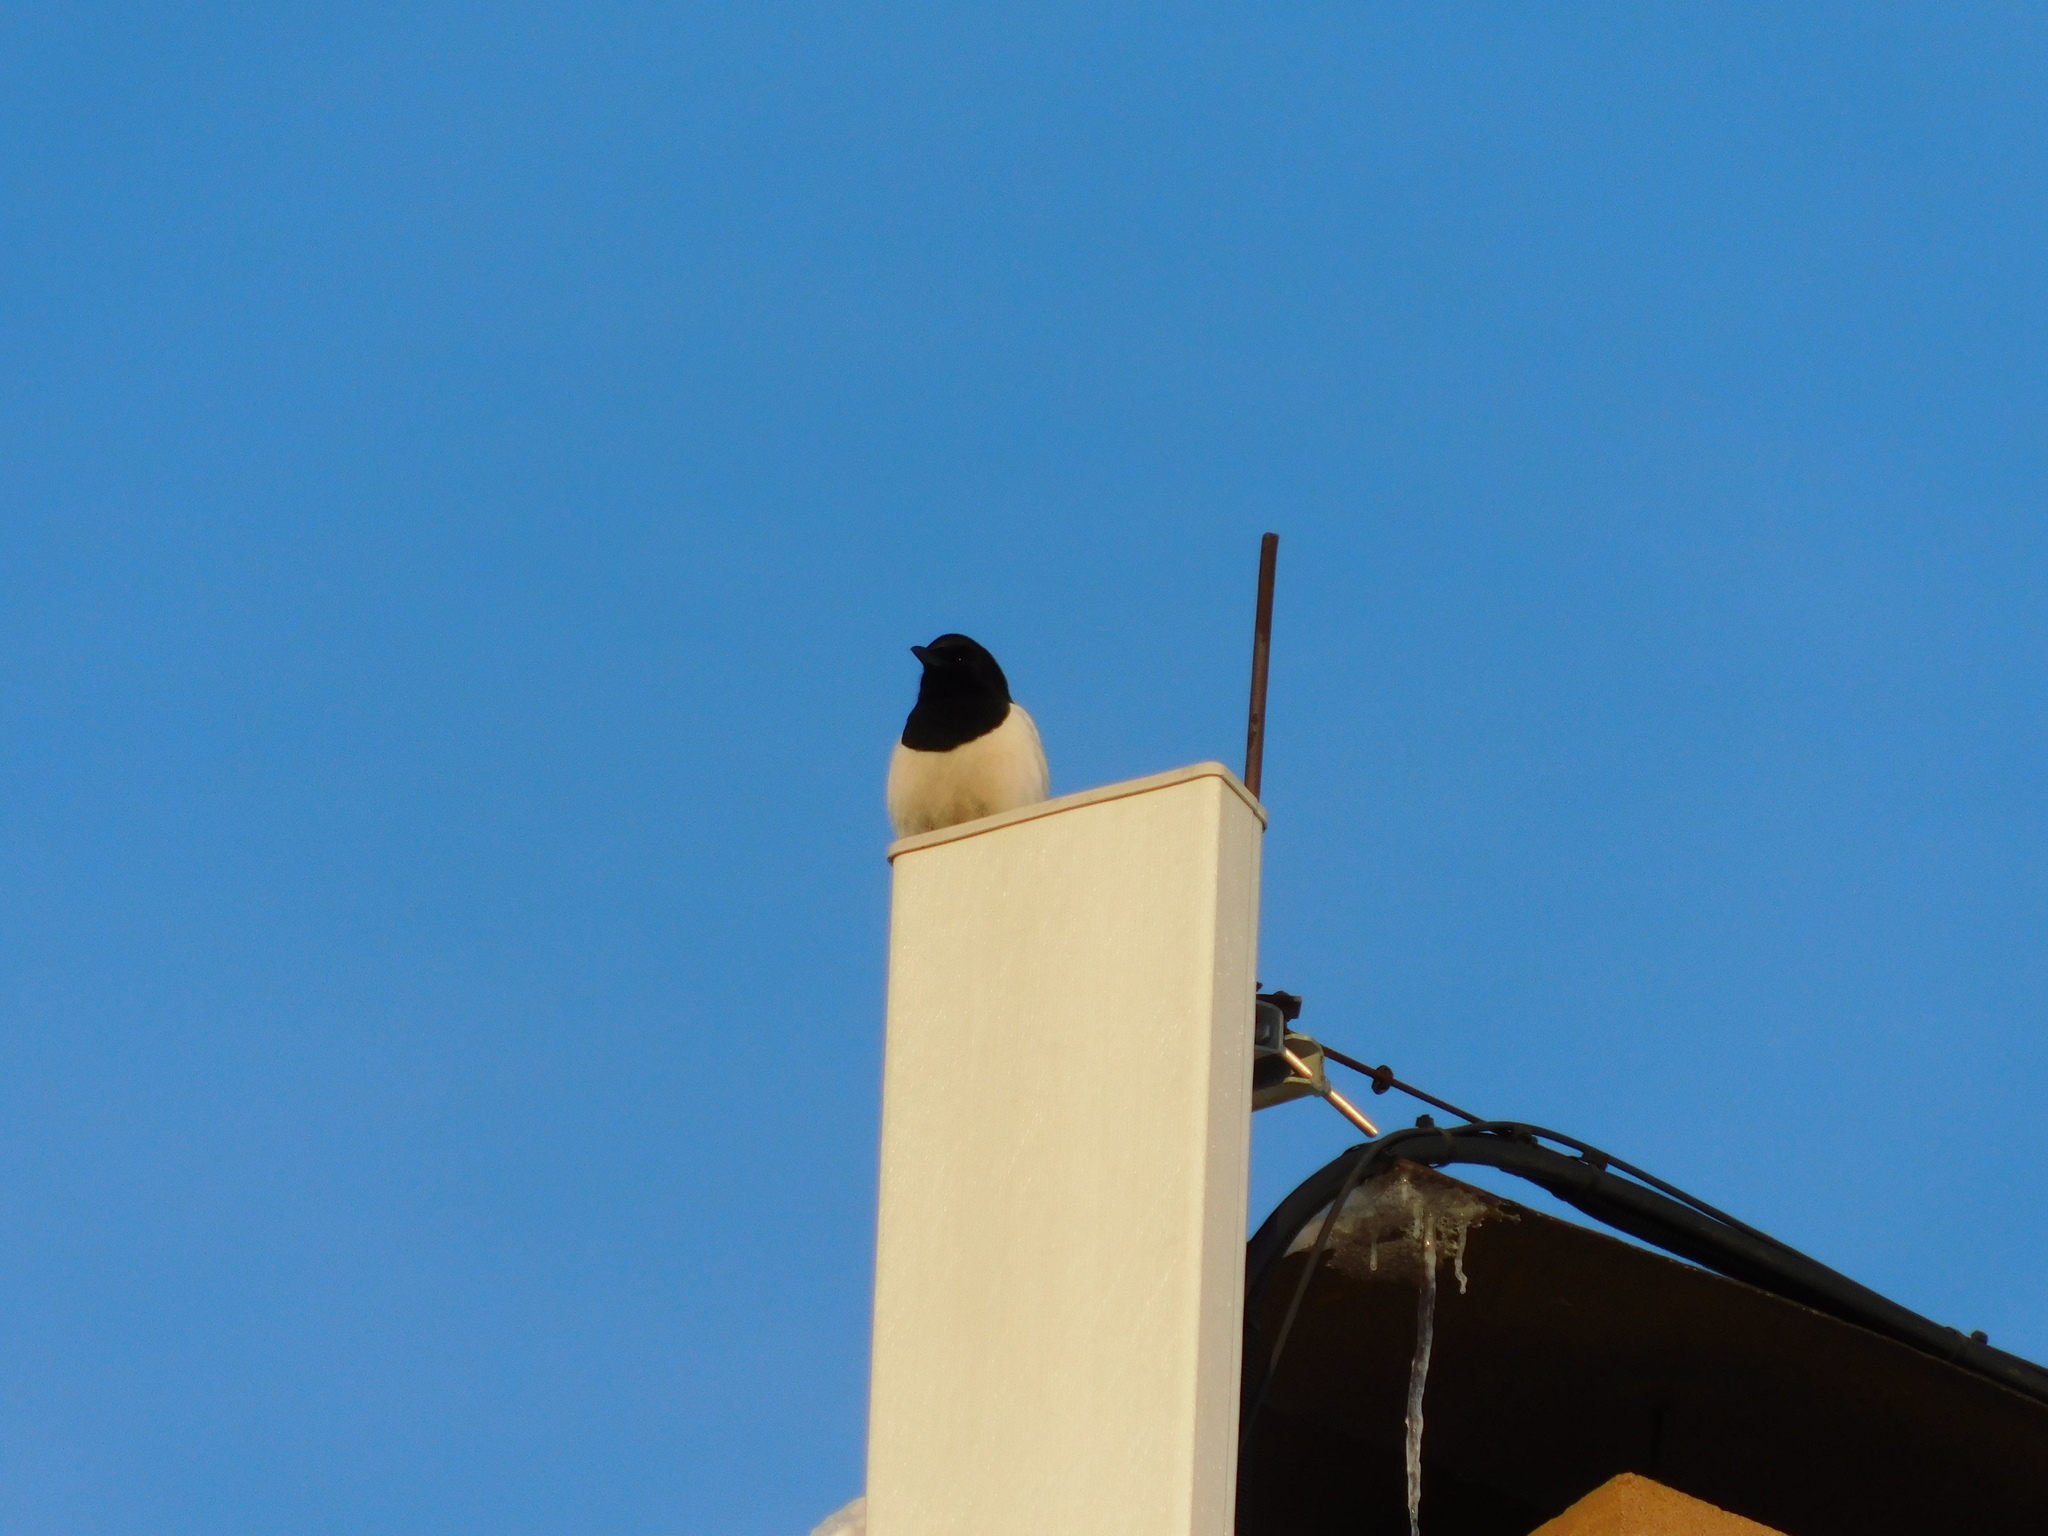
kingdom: Animalia
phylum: Chordata
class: Aves
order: Passeriformes
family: Corvidae
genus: Pica
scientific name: Pica pica
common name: Eurasian magpie
